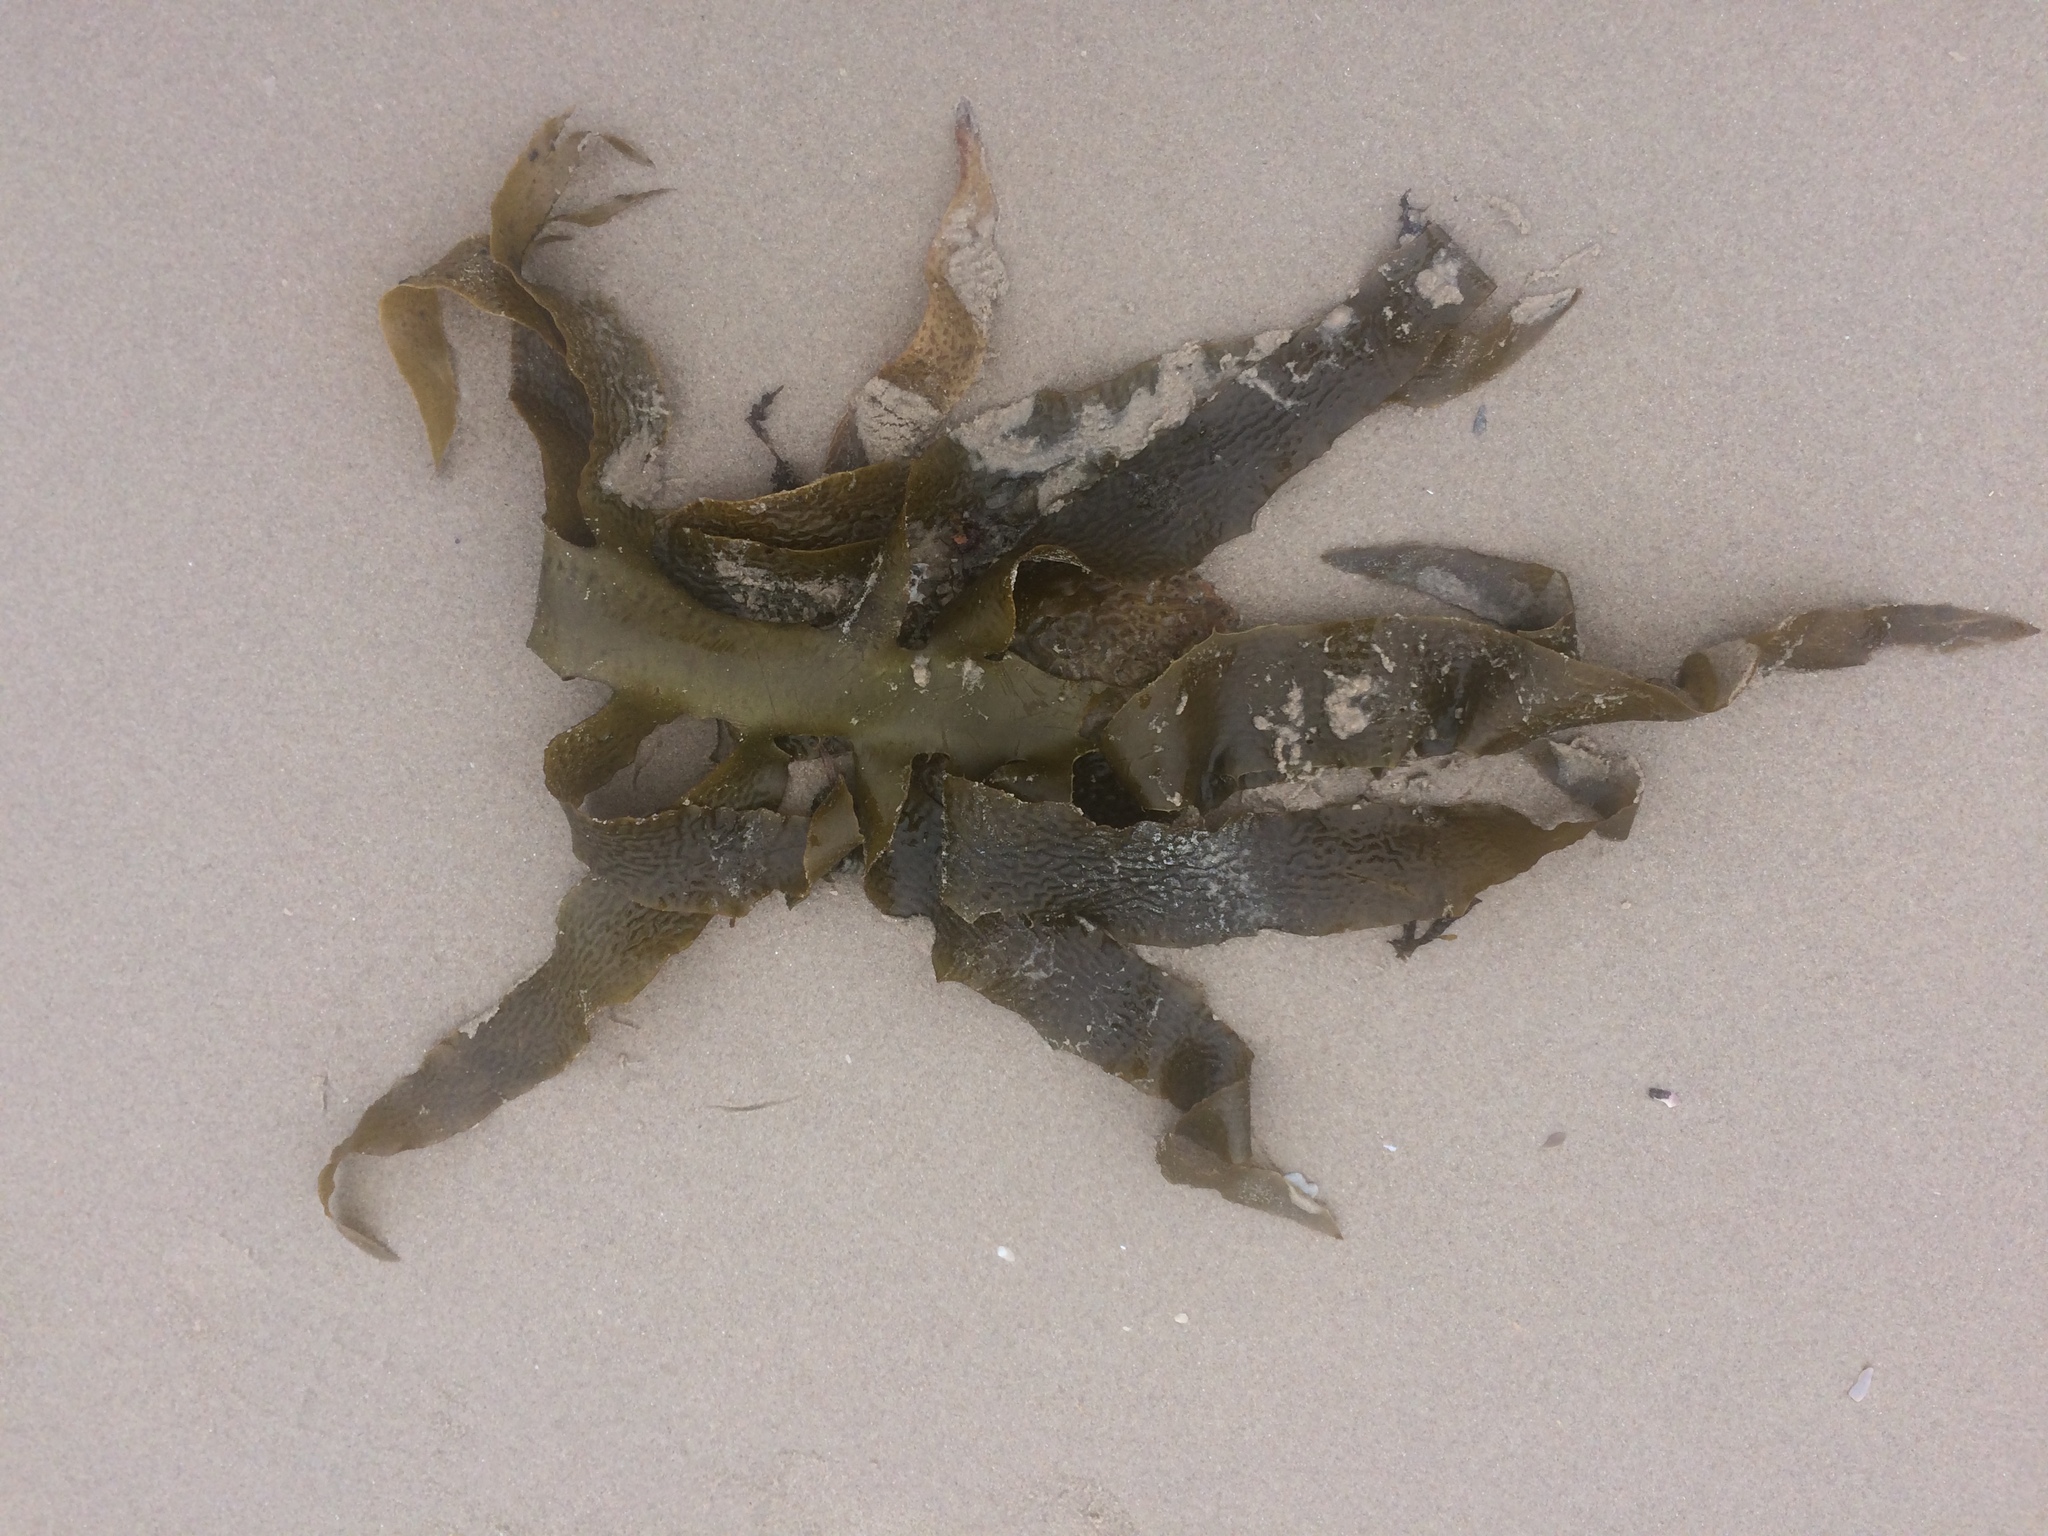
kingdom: Chromista
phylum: Ochrophyta
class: Phaeophyceae
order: Laminariales
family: Lessoniaceae
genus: Ecklonia
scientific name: Ecklonia radiata
